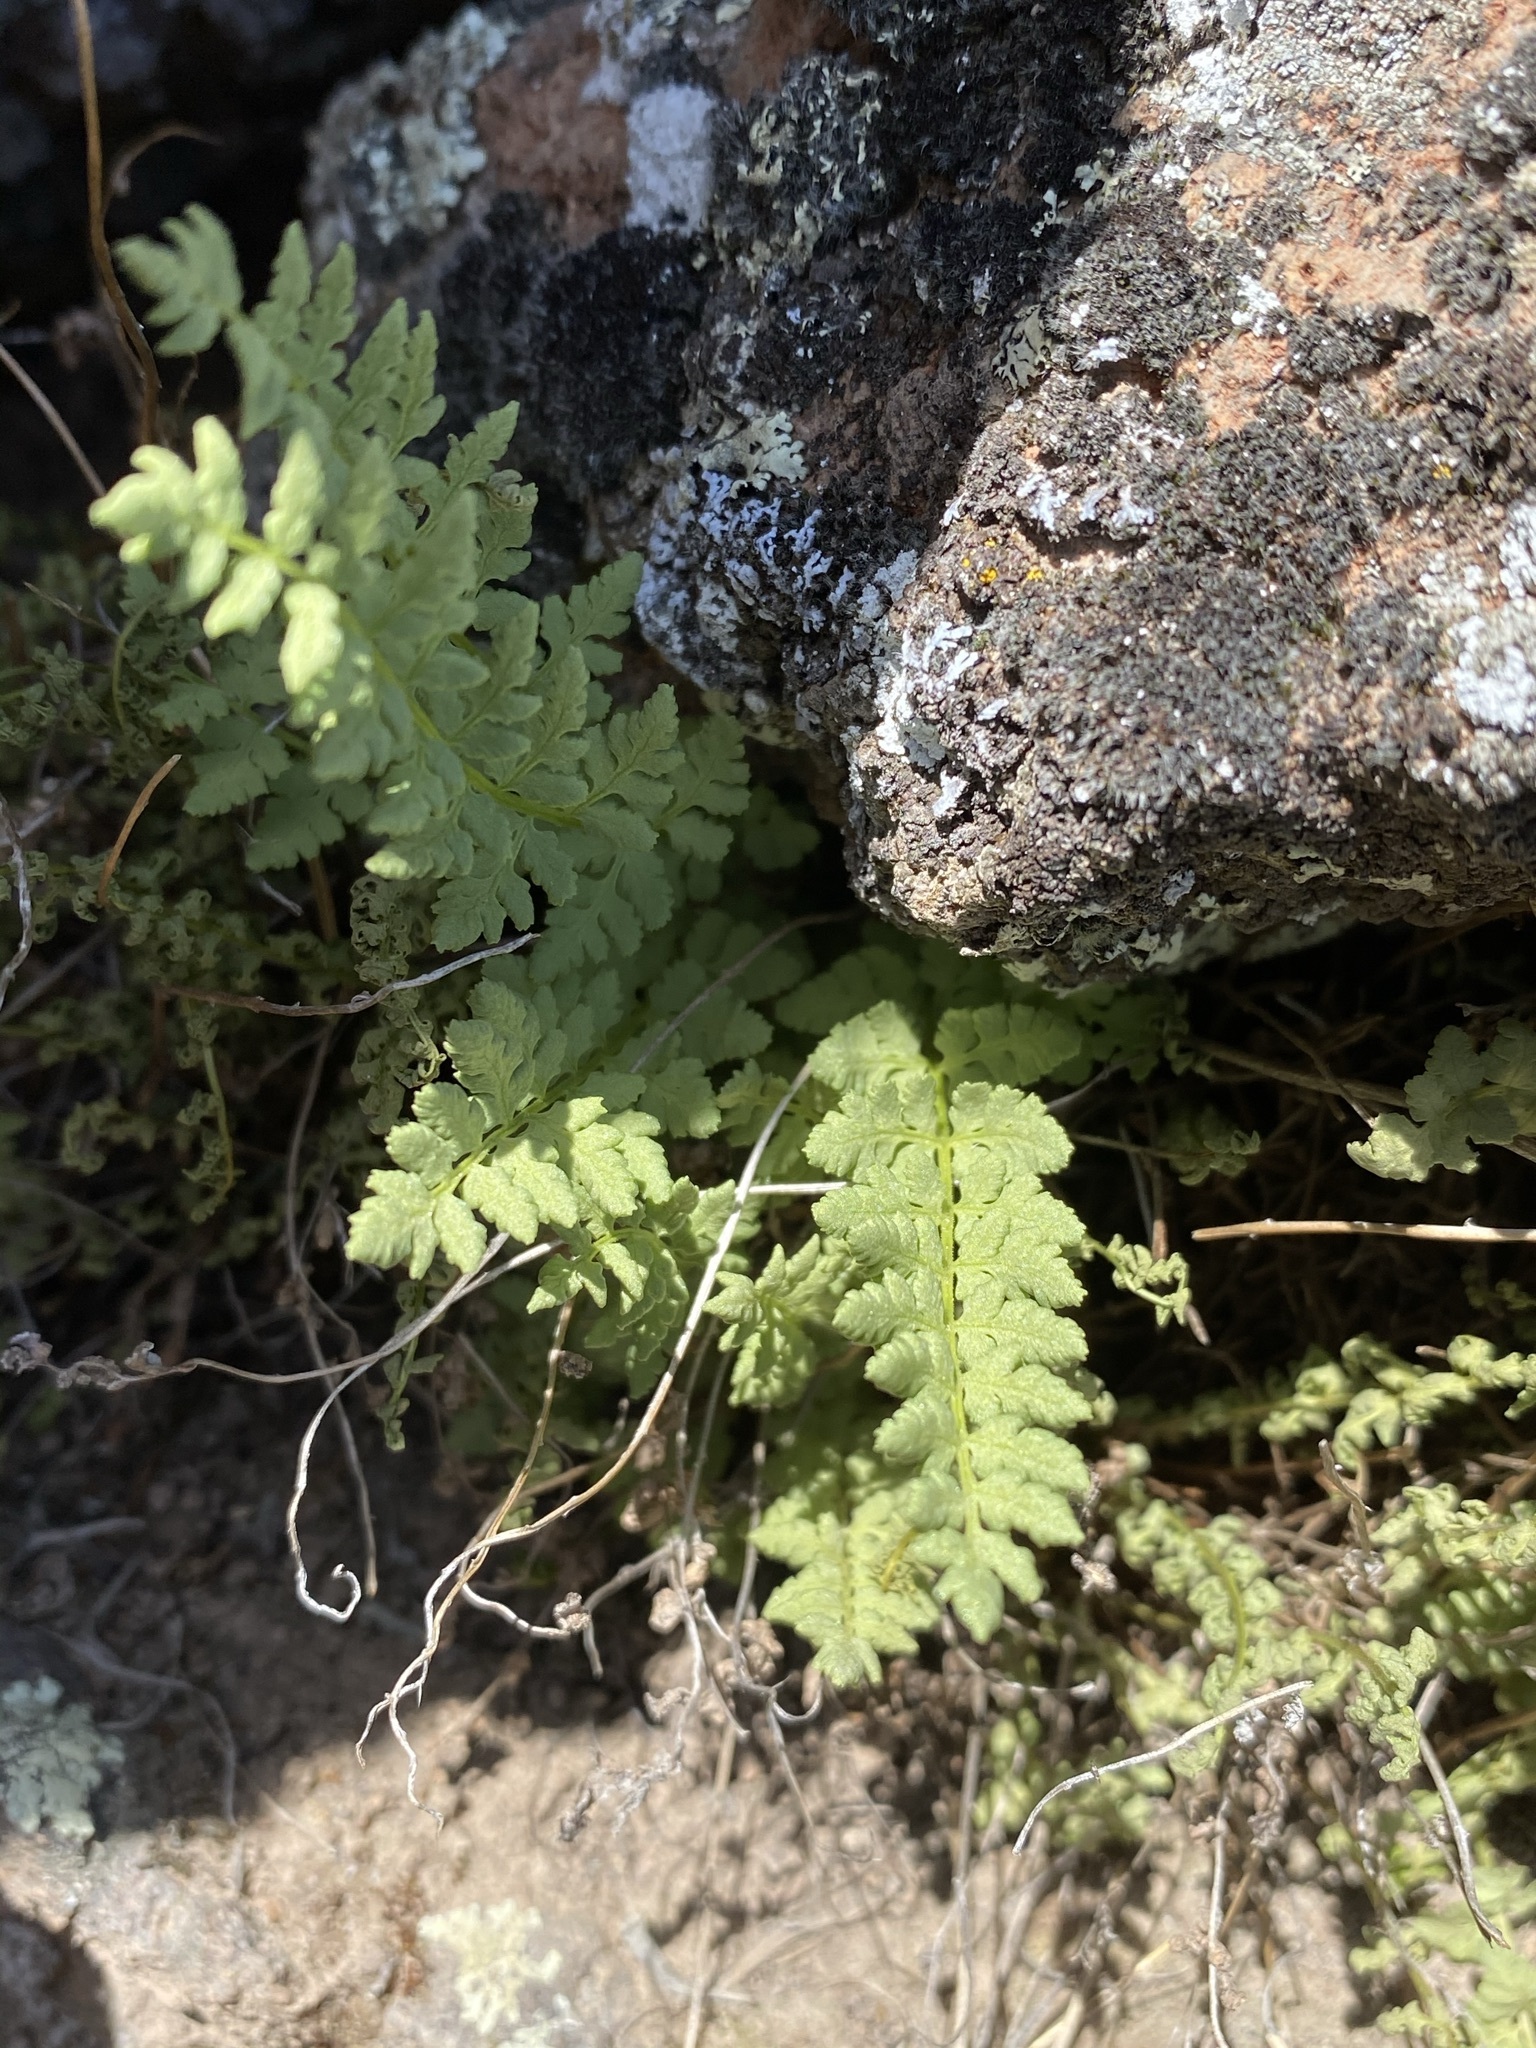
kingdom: Plantae
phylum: Tracheophyta
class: Polypodiopsida
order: Polypodiales
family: Woodsiaceae
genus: Physematium
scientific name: Physematium oreganum
